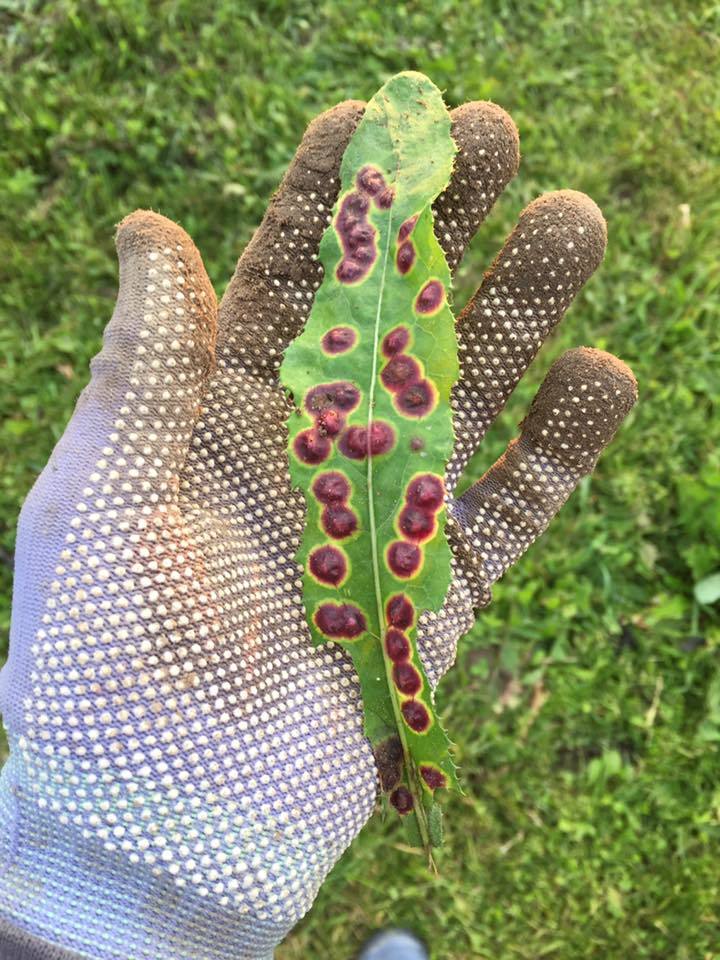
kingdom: Animalia
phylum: Arthropoda
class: Insecta
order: Diptera
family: Cecidomyiidae
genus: Cystiphora
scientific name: Cystiphora sonchi
